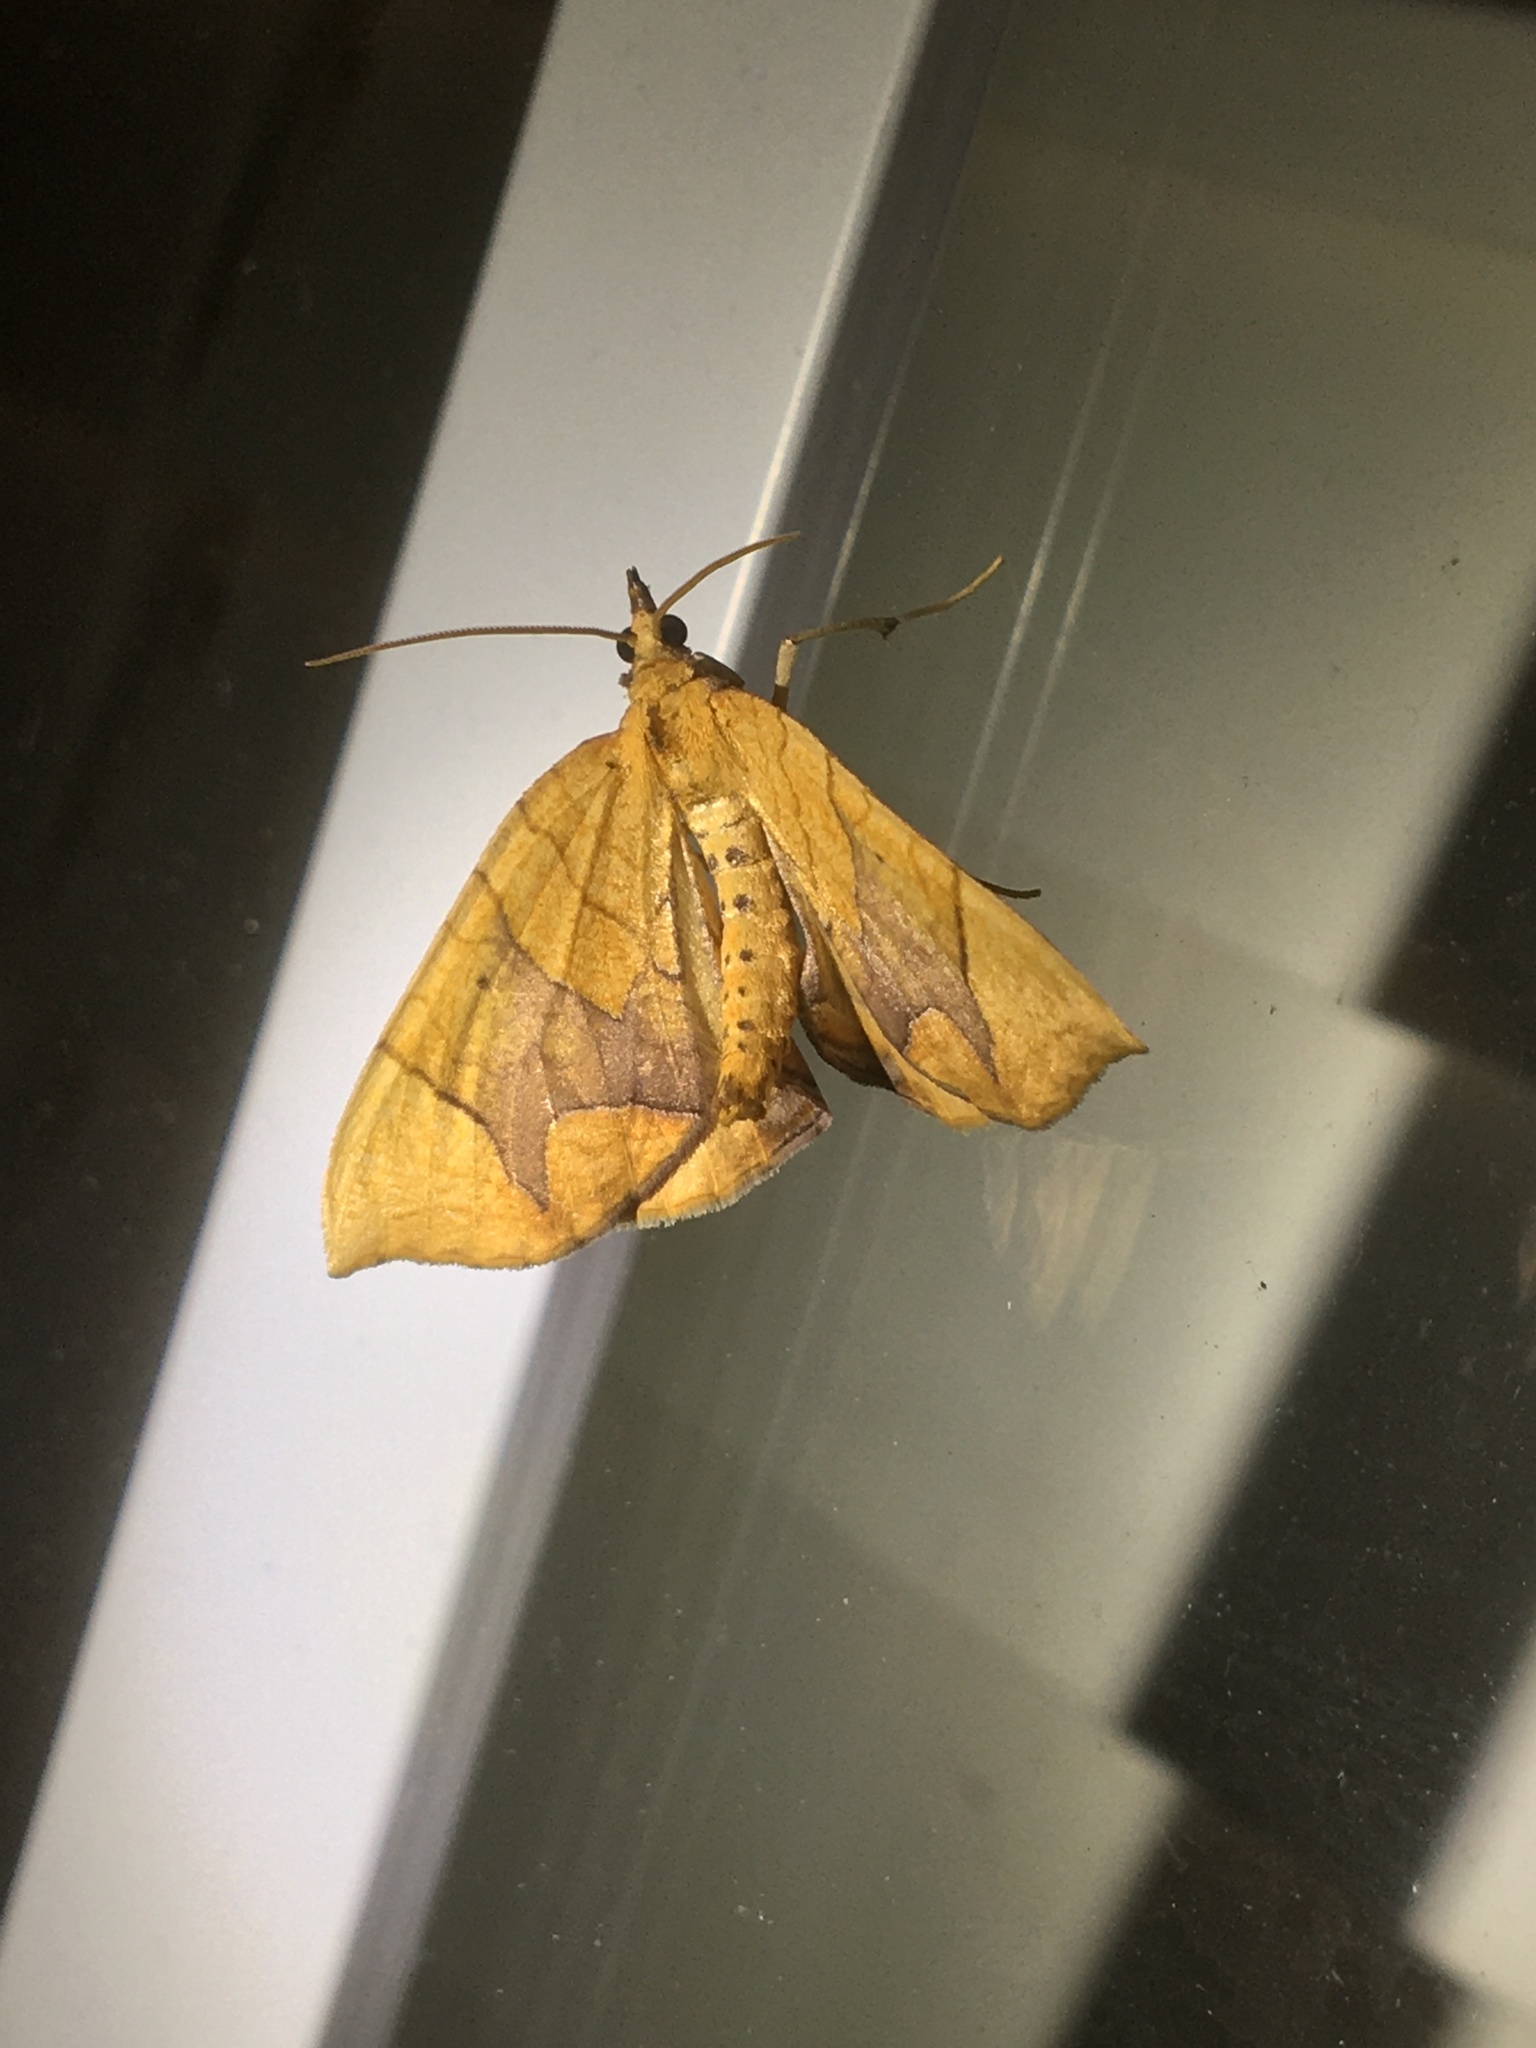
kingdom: Animalia
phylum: Arthropoda
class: Insecta
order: Lepidoptera
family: Geometridae
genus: Eulithis
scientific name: Eulithis
